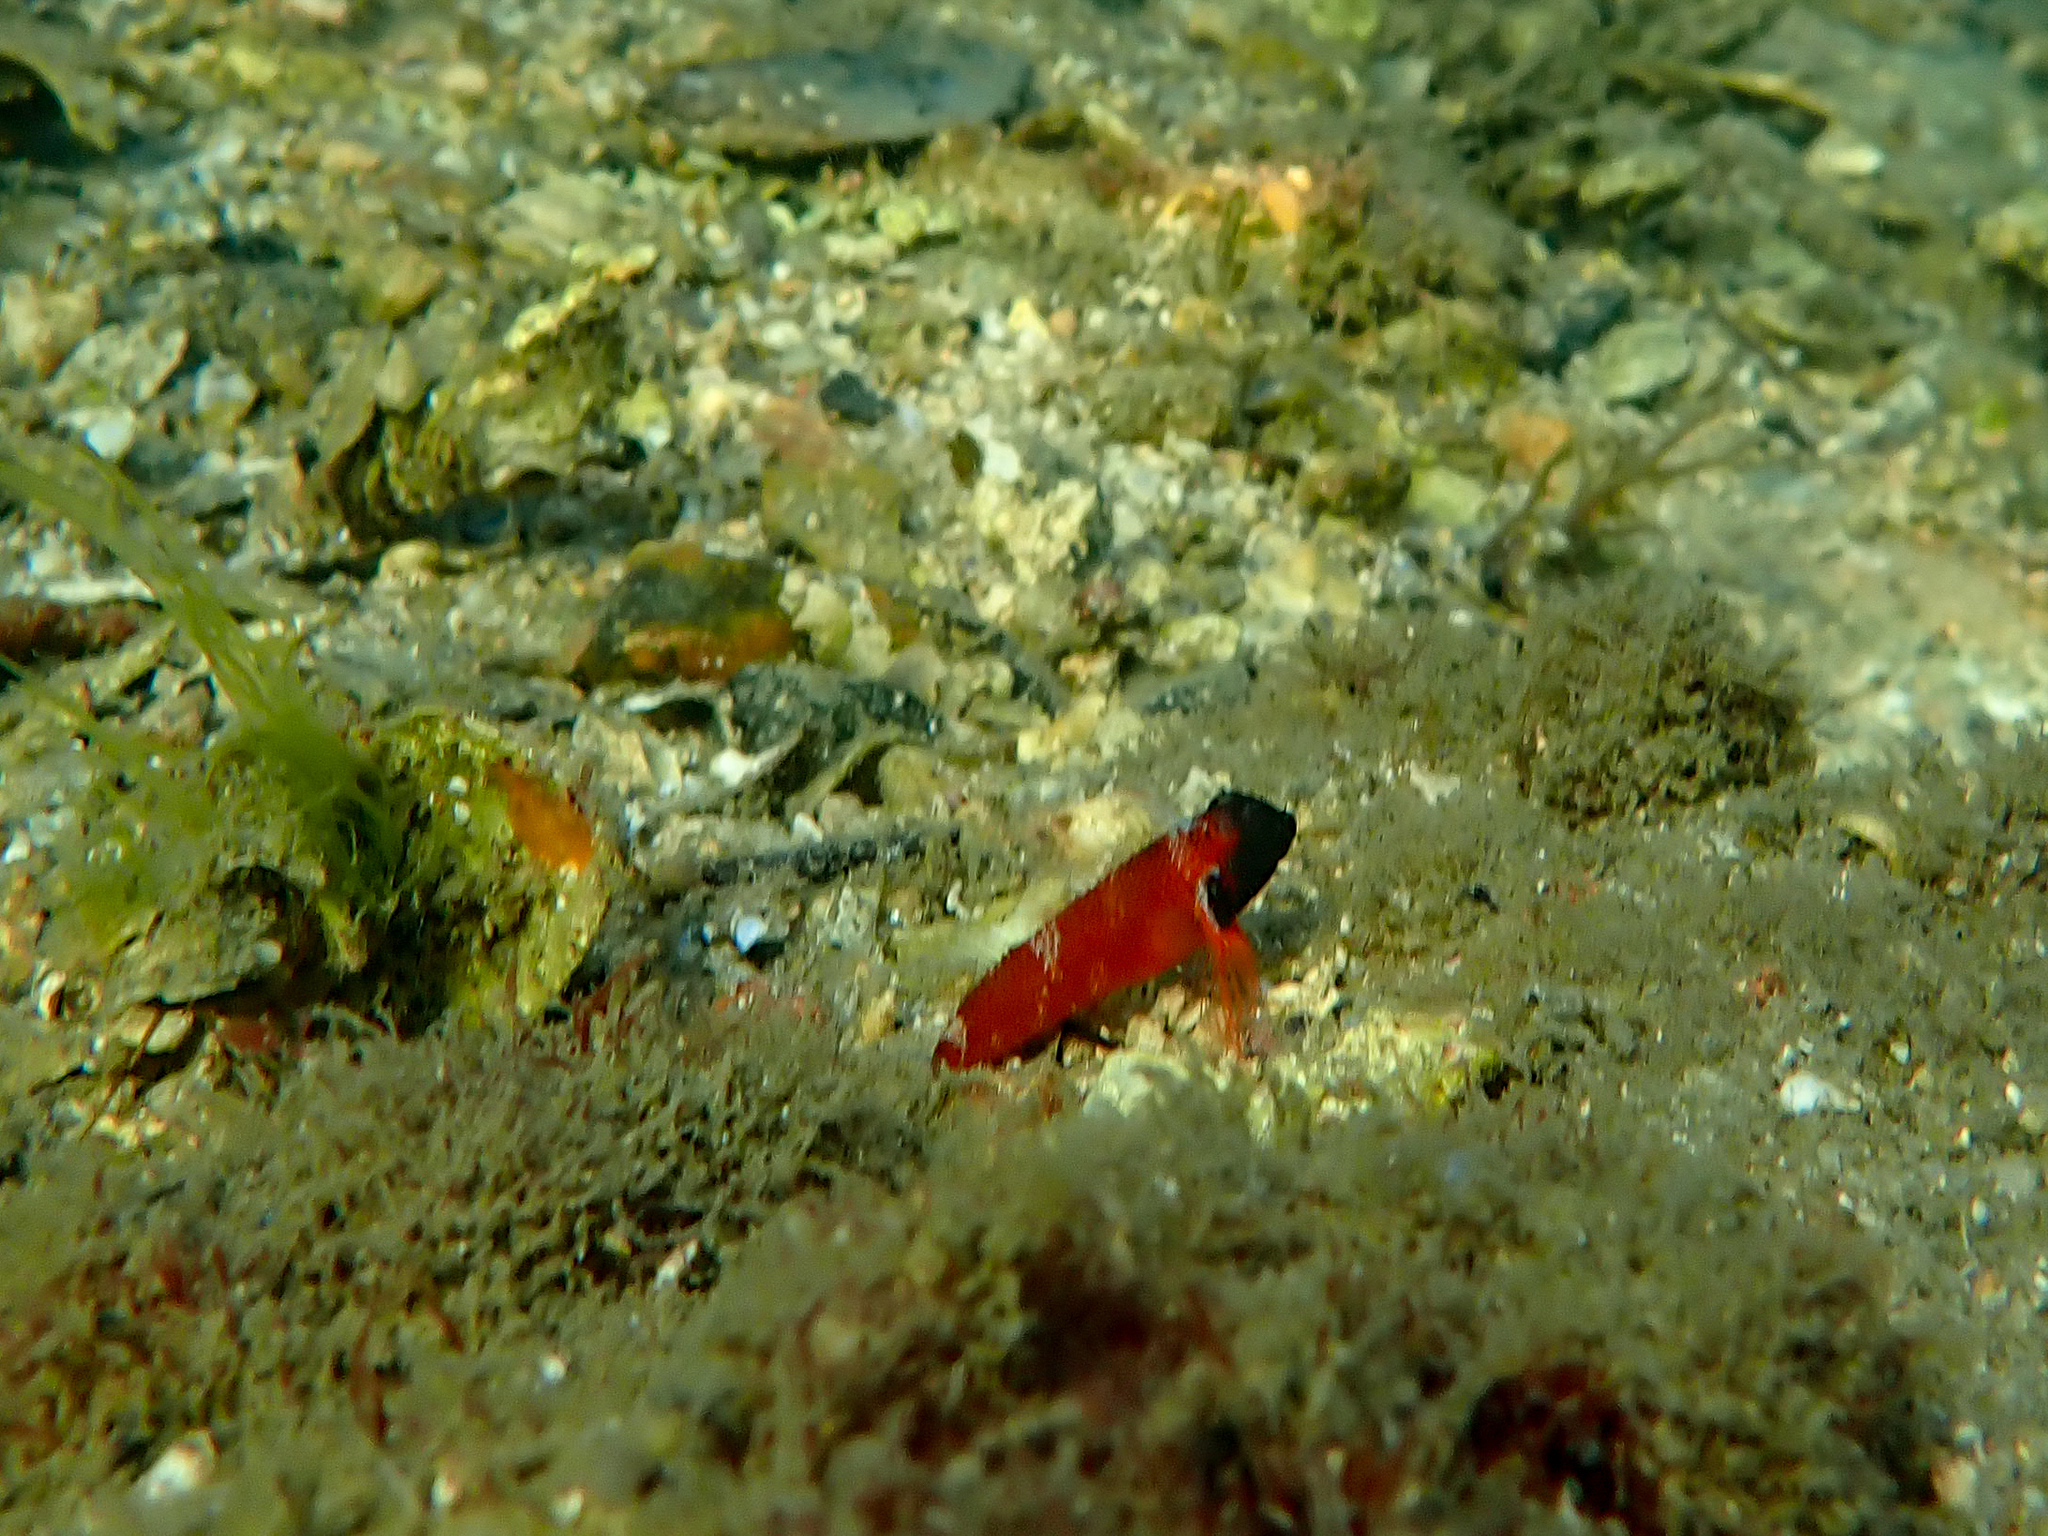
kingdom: Animalia
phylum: Chordata
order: Perciformes
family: Tripterygiidae
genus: Enneapterygius
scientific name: Enneapterygius atrogulare
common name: Blackthroat triplefin
